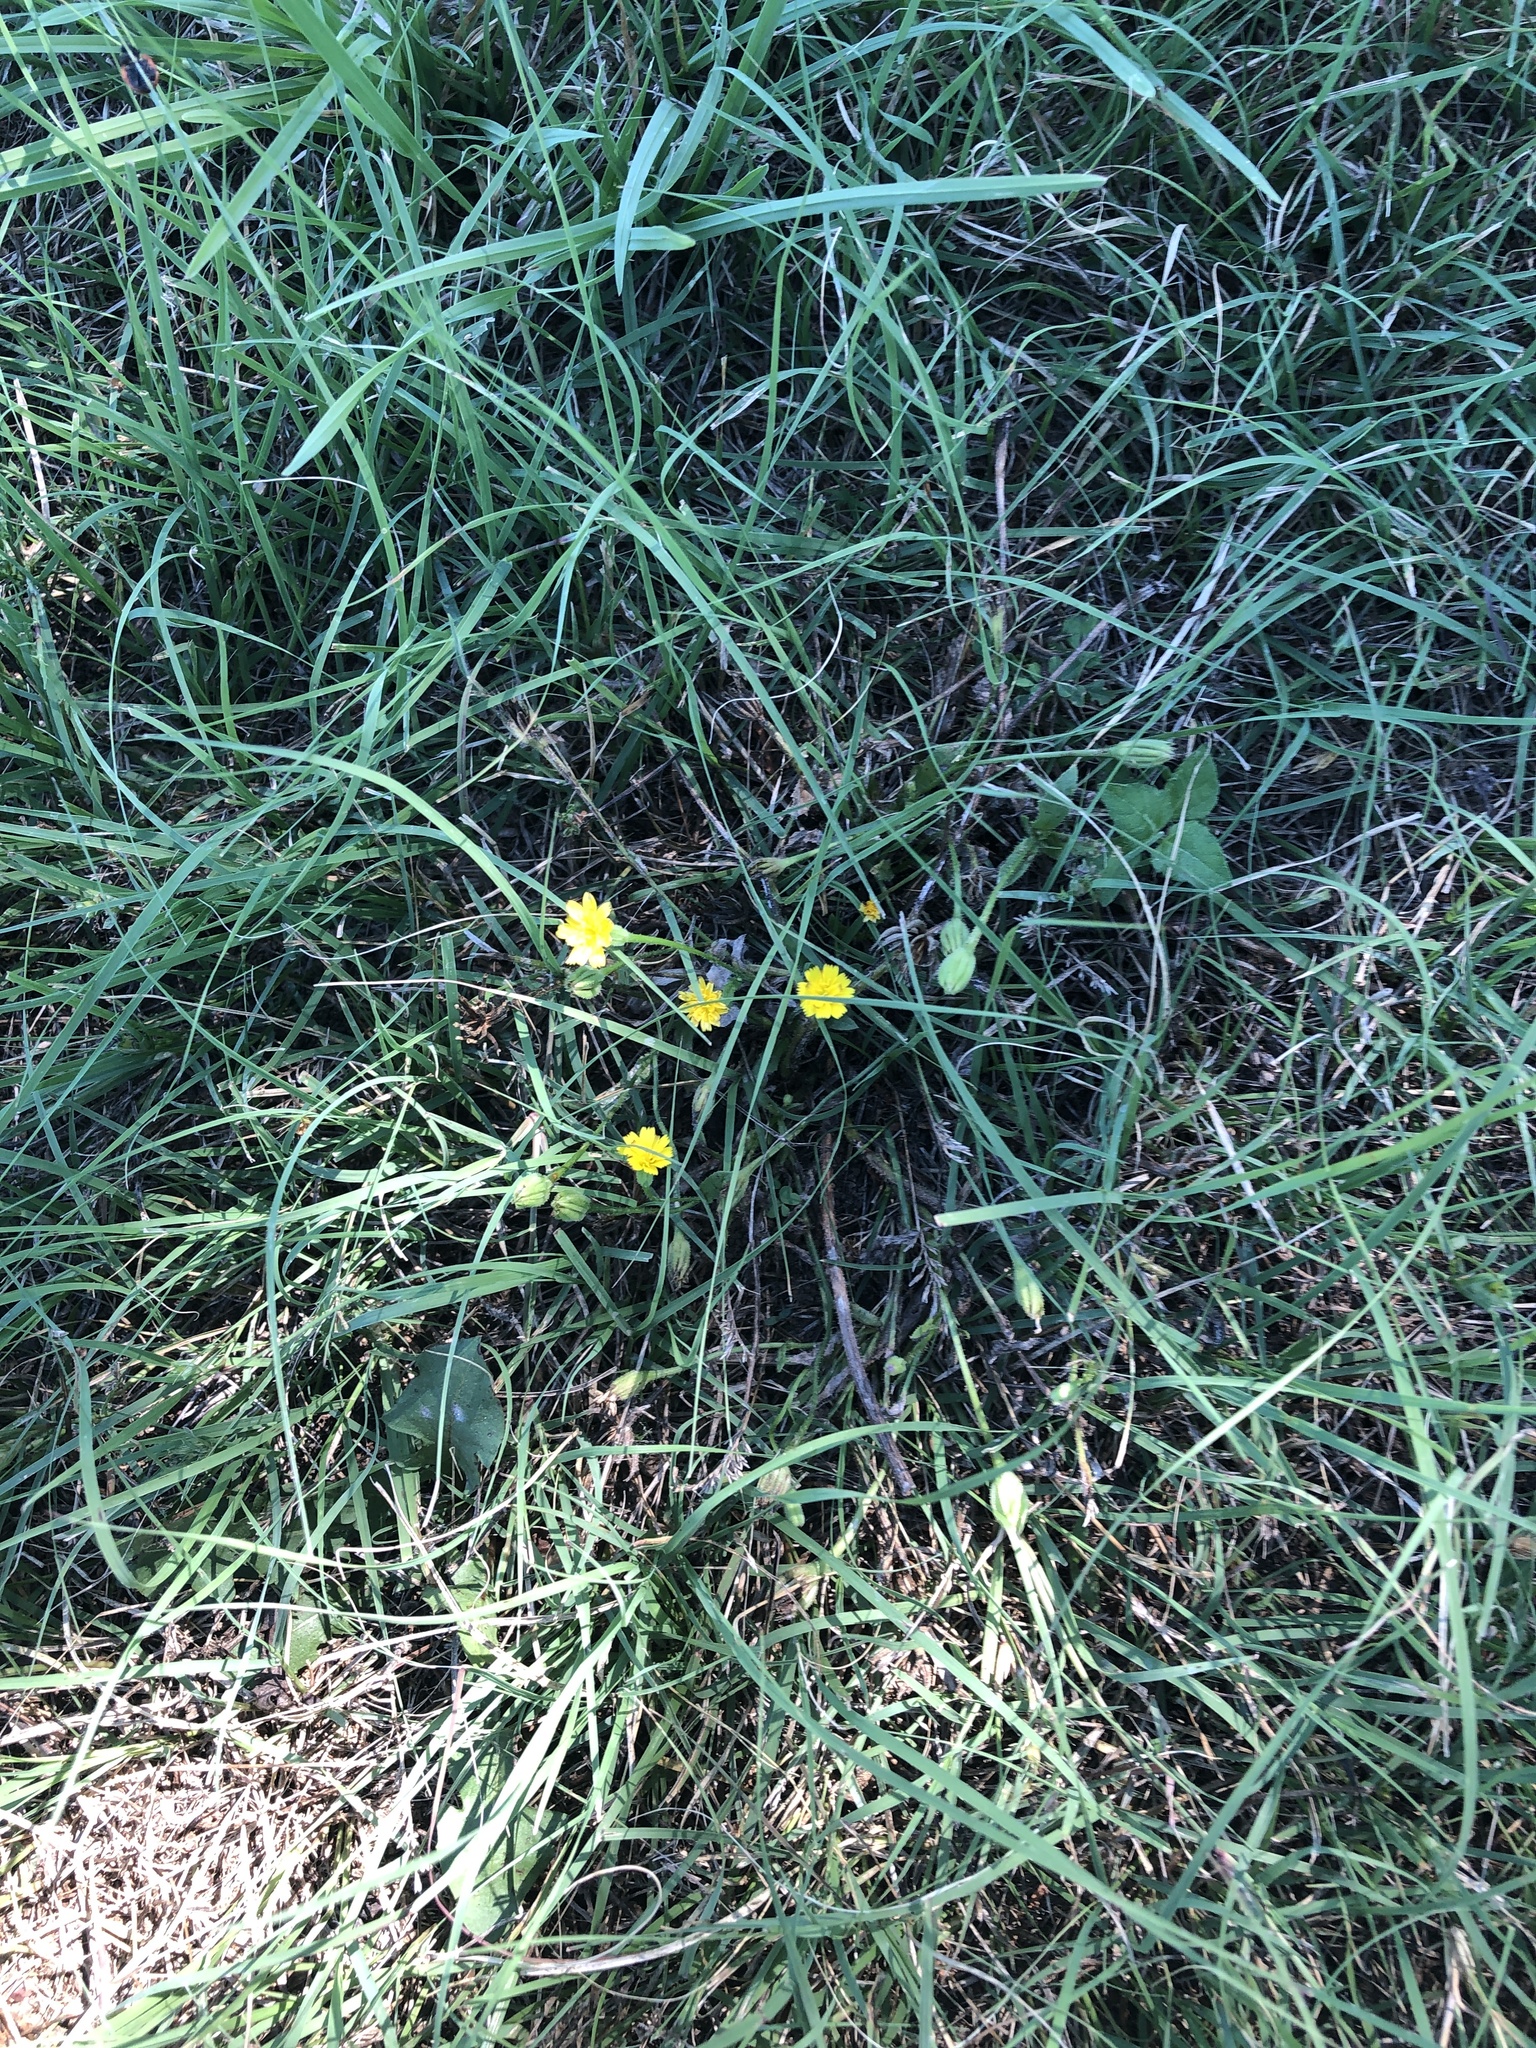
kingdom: Plantae
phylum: Tracheophyta
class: Magnoliopsida
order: Asterales
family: Asteraceae
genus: Hedypnois
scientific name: Hedypnois rhagadioloides
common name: Cretan weed
